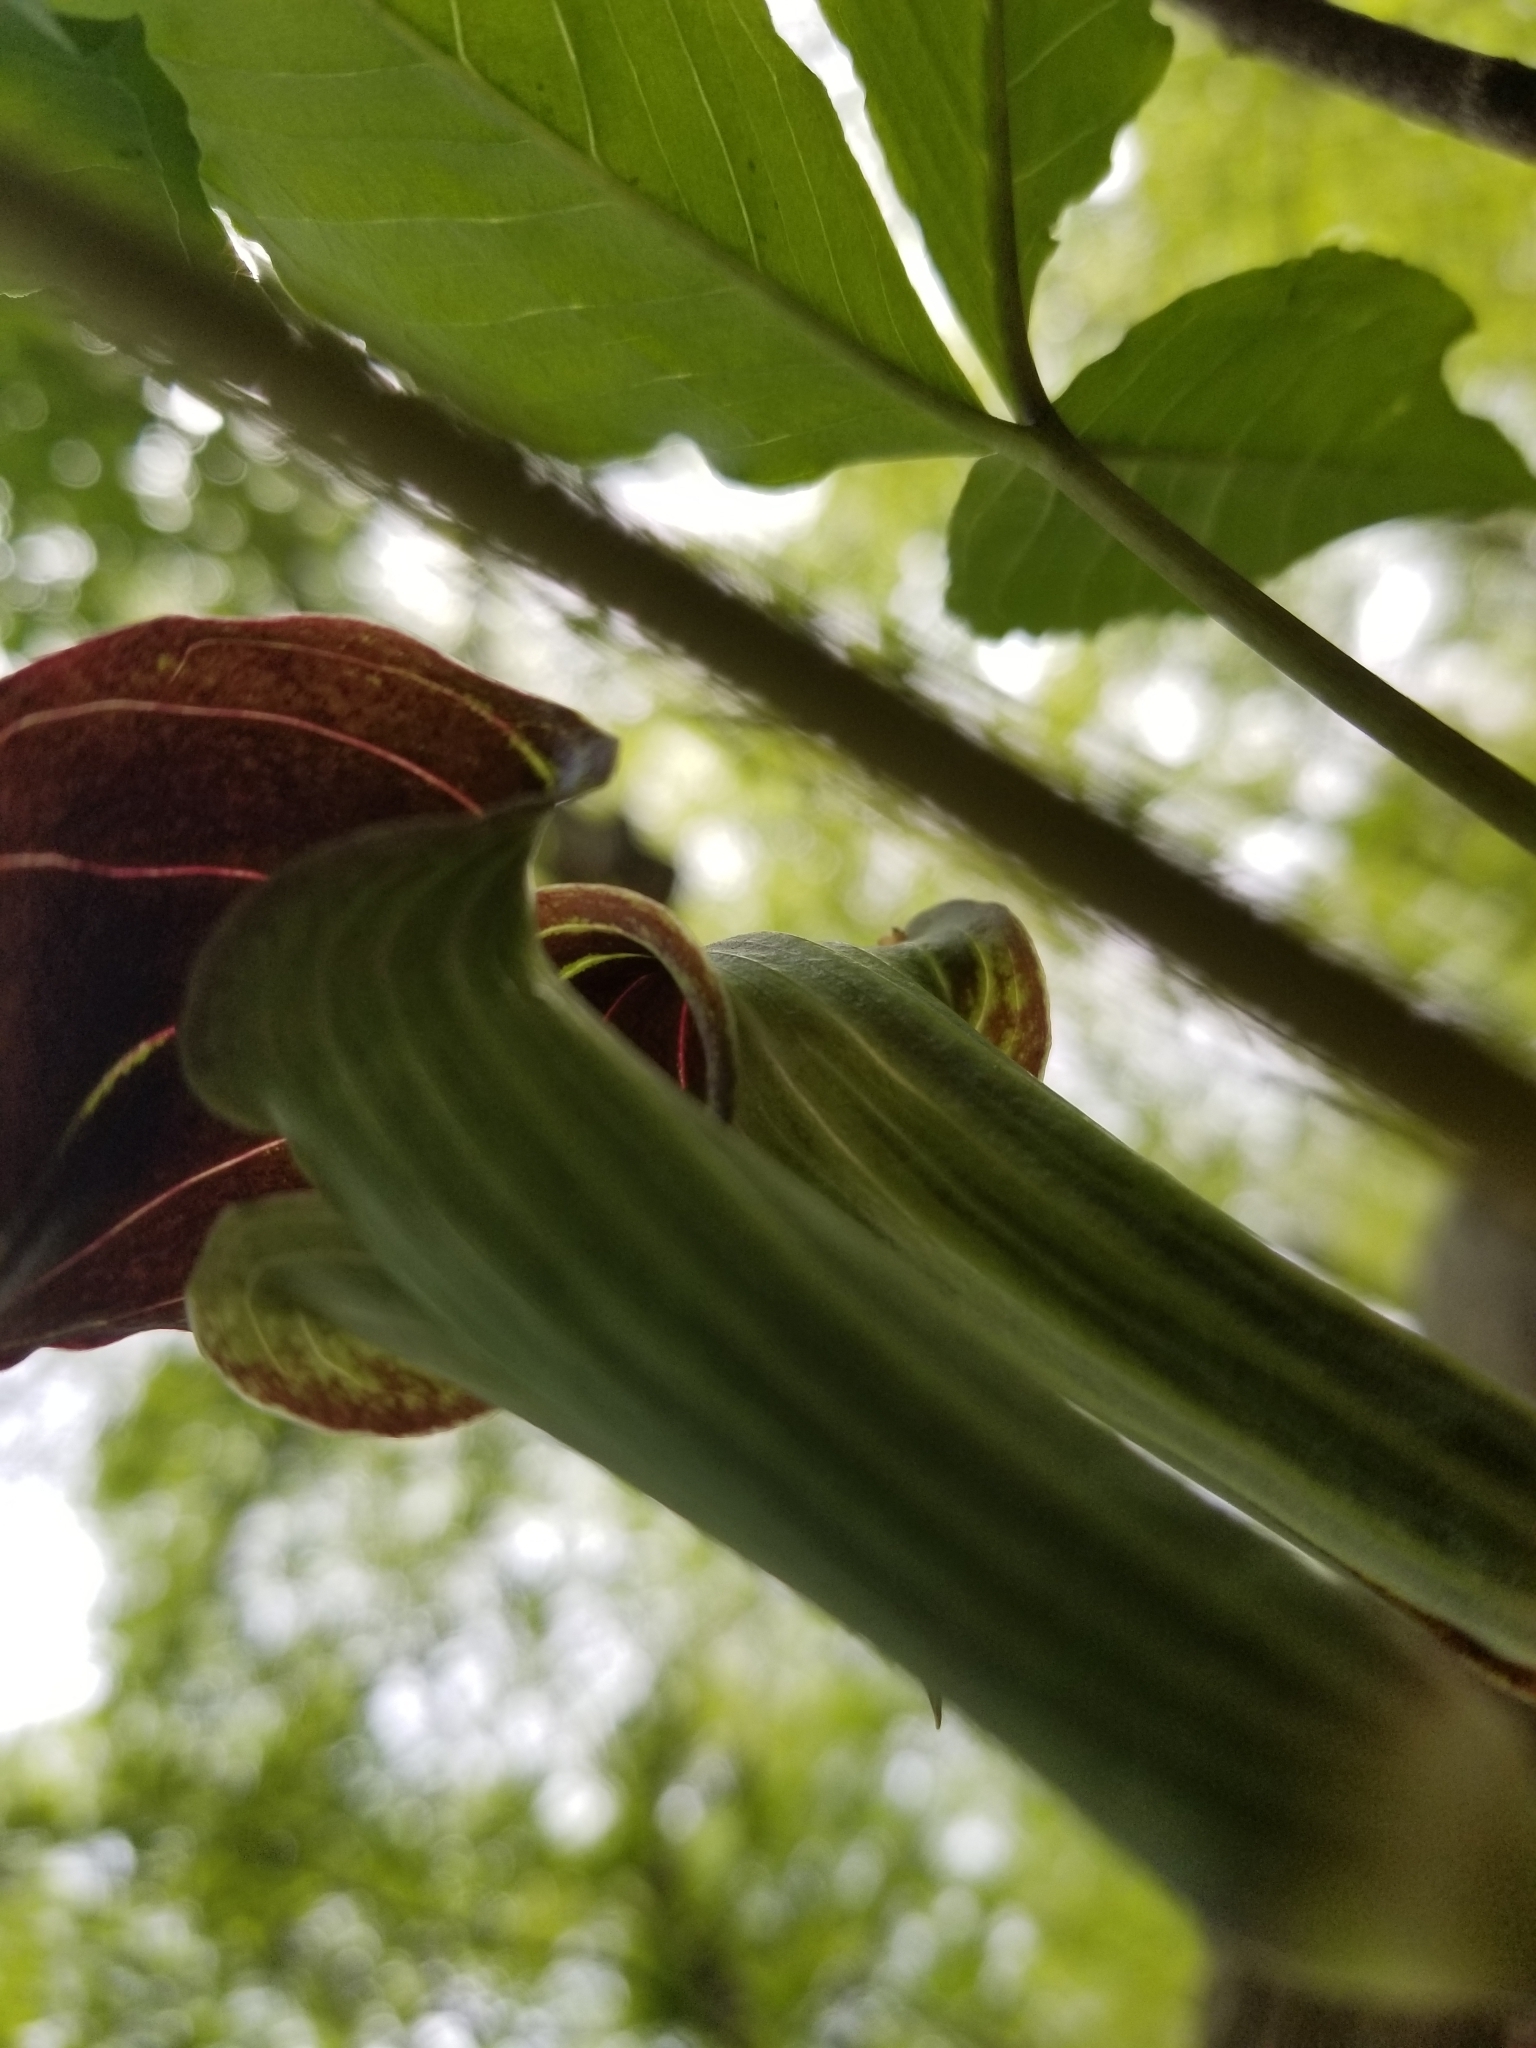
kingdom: Plantae
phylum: Tracheophyta
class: Liliopsida
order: Alismatales
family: Araceae
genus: Arisaema
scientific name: Arisaema triphyllum
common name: Jack-in-the-pulpit
